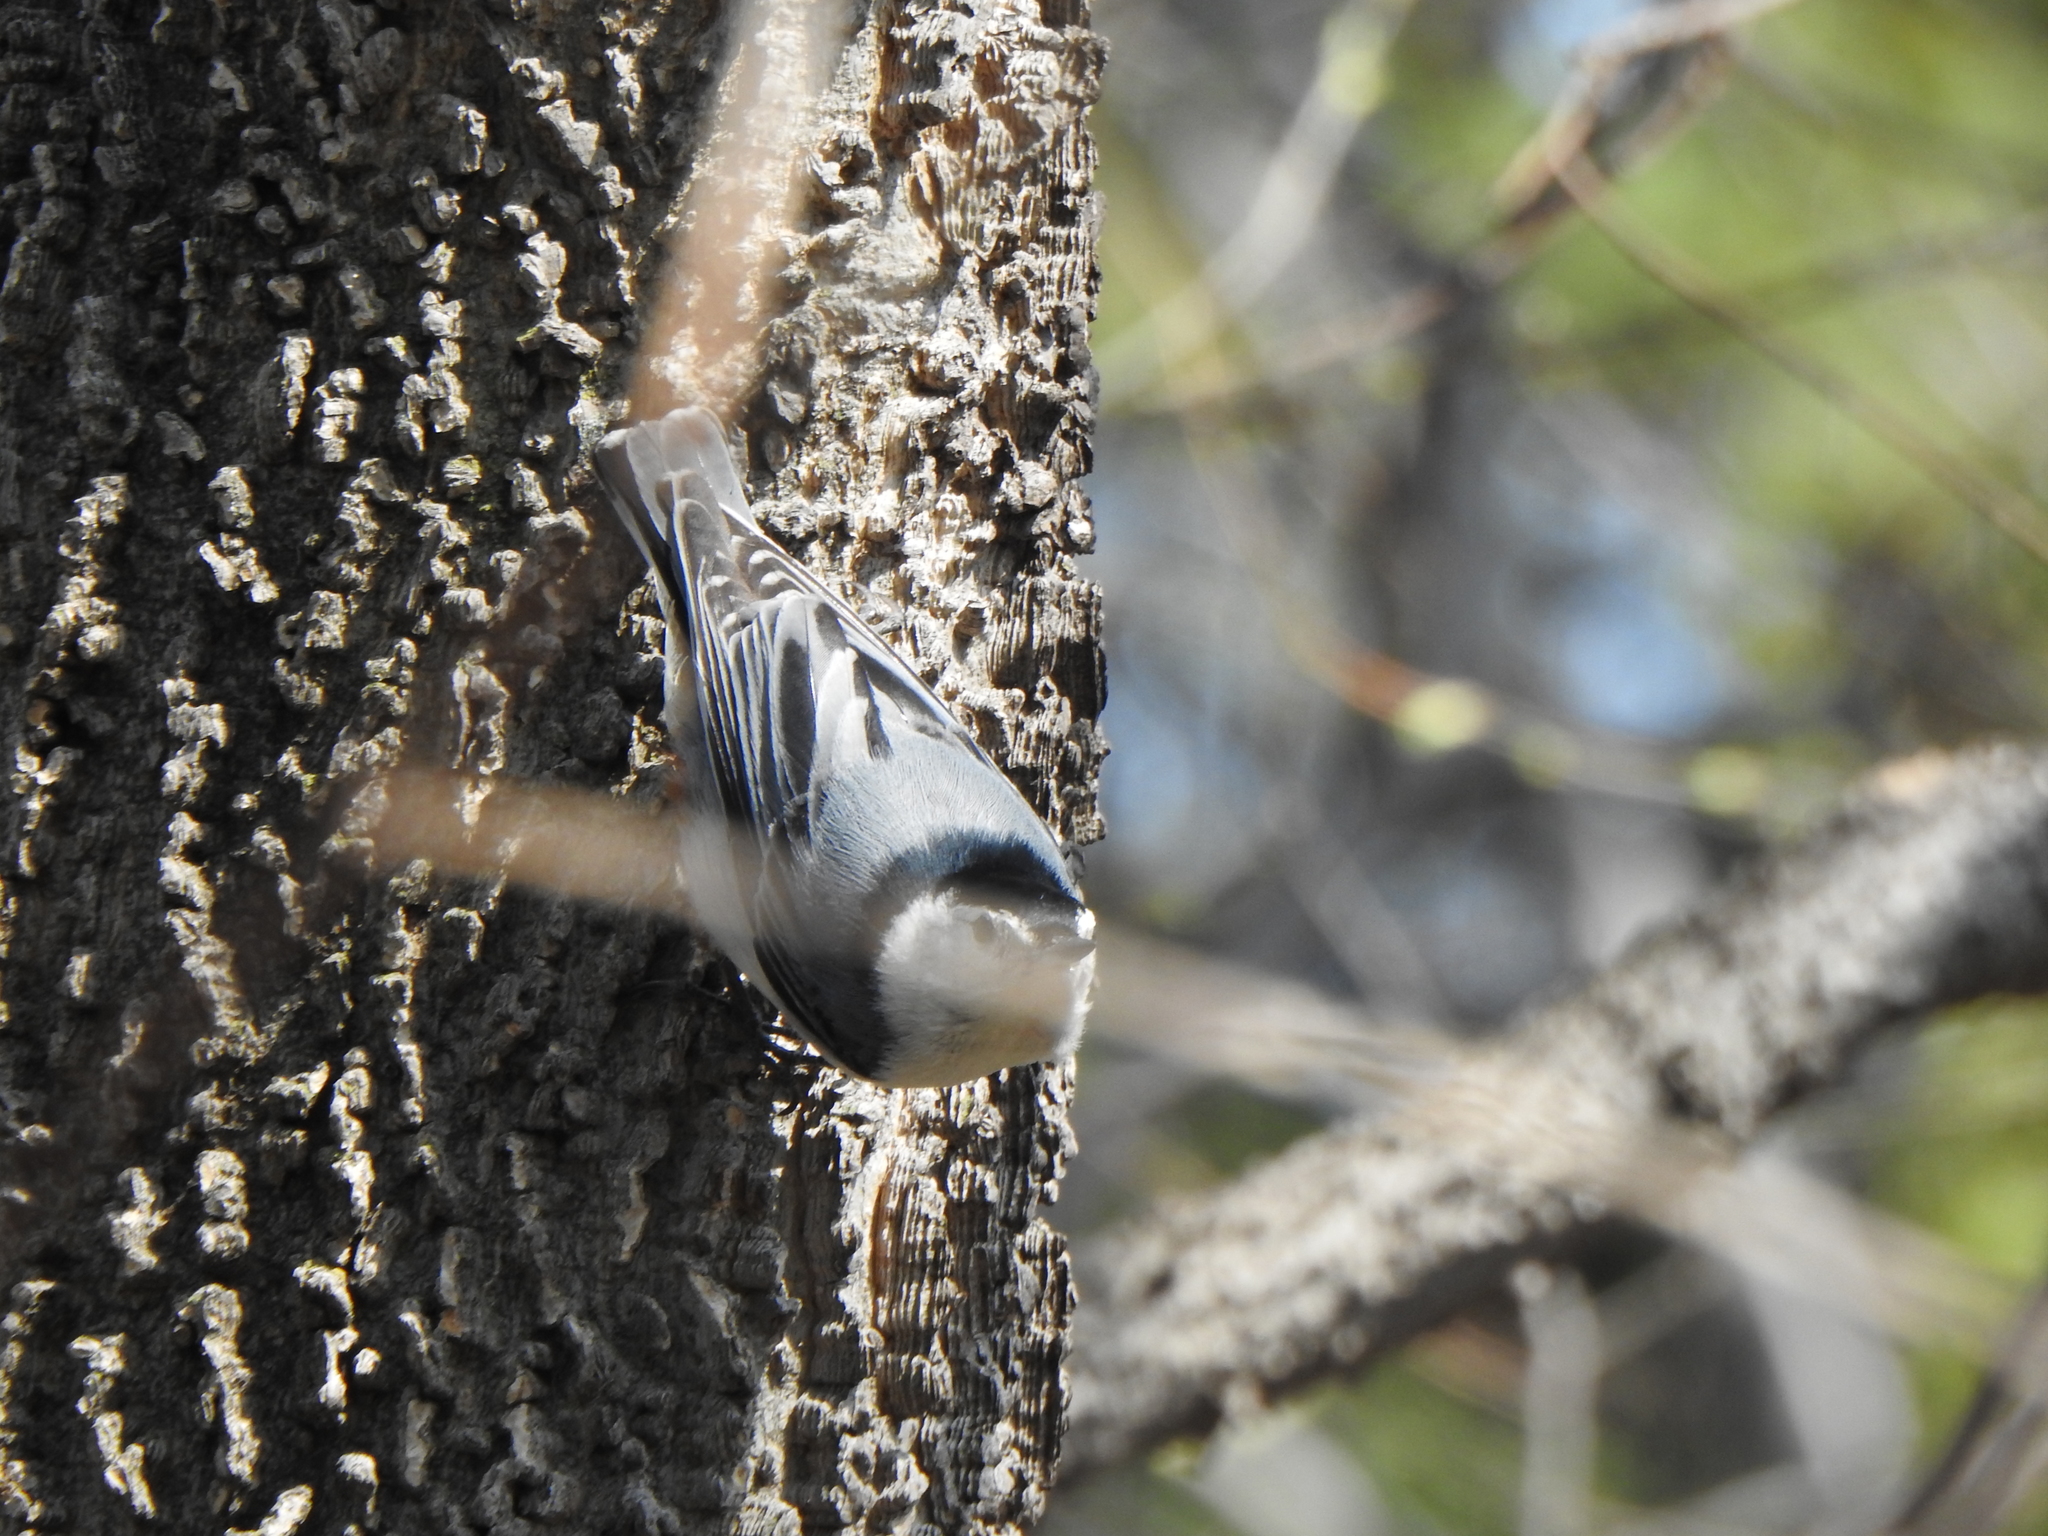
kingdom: Animalia
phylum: Chordata
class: Aves
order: Passeriformes
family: Sittidae
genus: Sitta
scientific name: Sitta carolinensis
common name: White-breasted nuthatch
